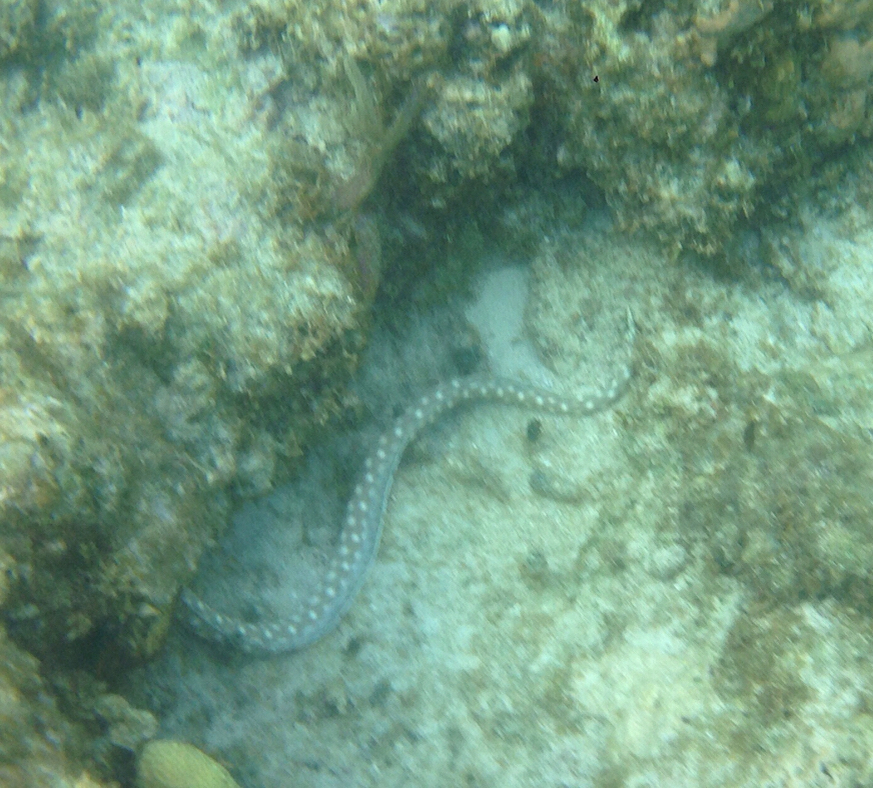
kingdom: Animalia
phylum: Chordata
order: Anguilliformes
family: Ophichthidae
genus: Myrichthys
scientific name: Myrichthys breviceps
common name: Sharptail eel
